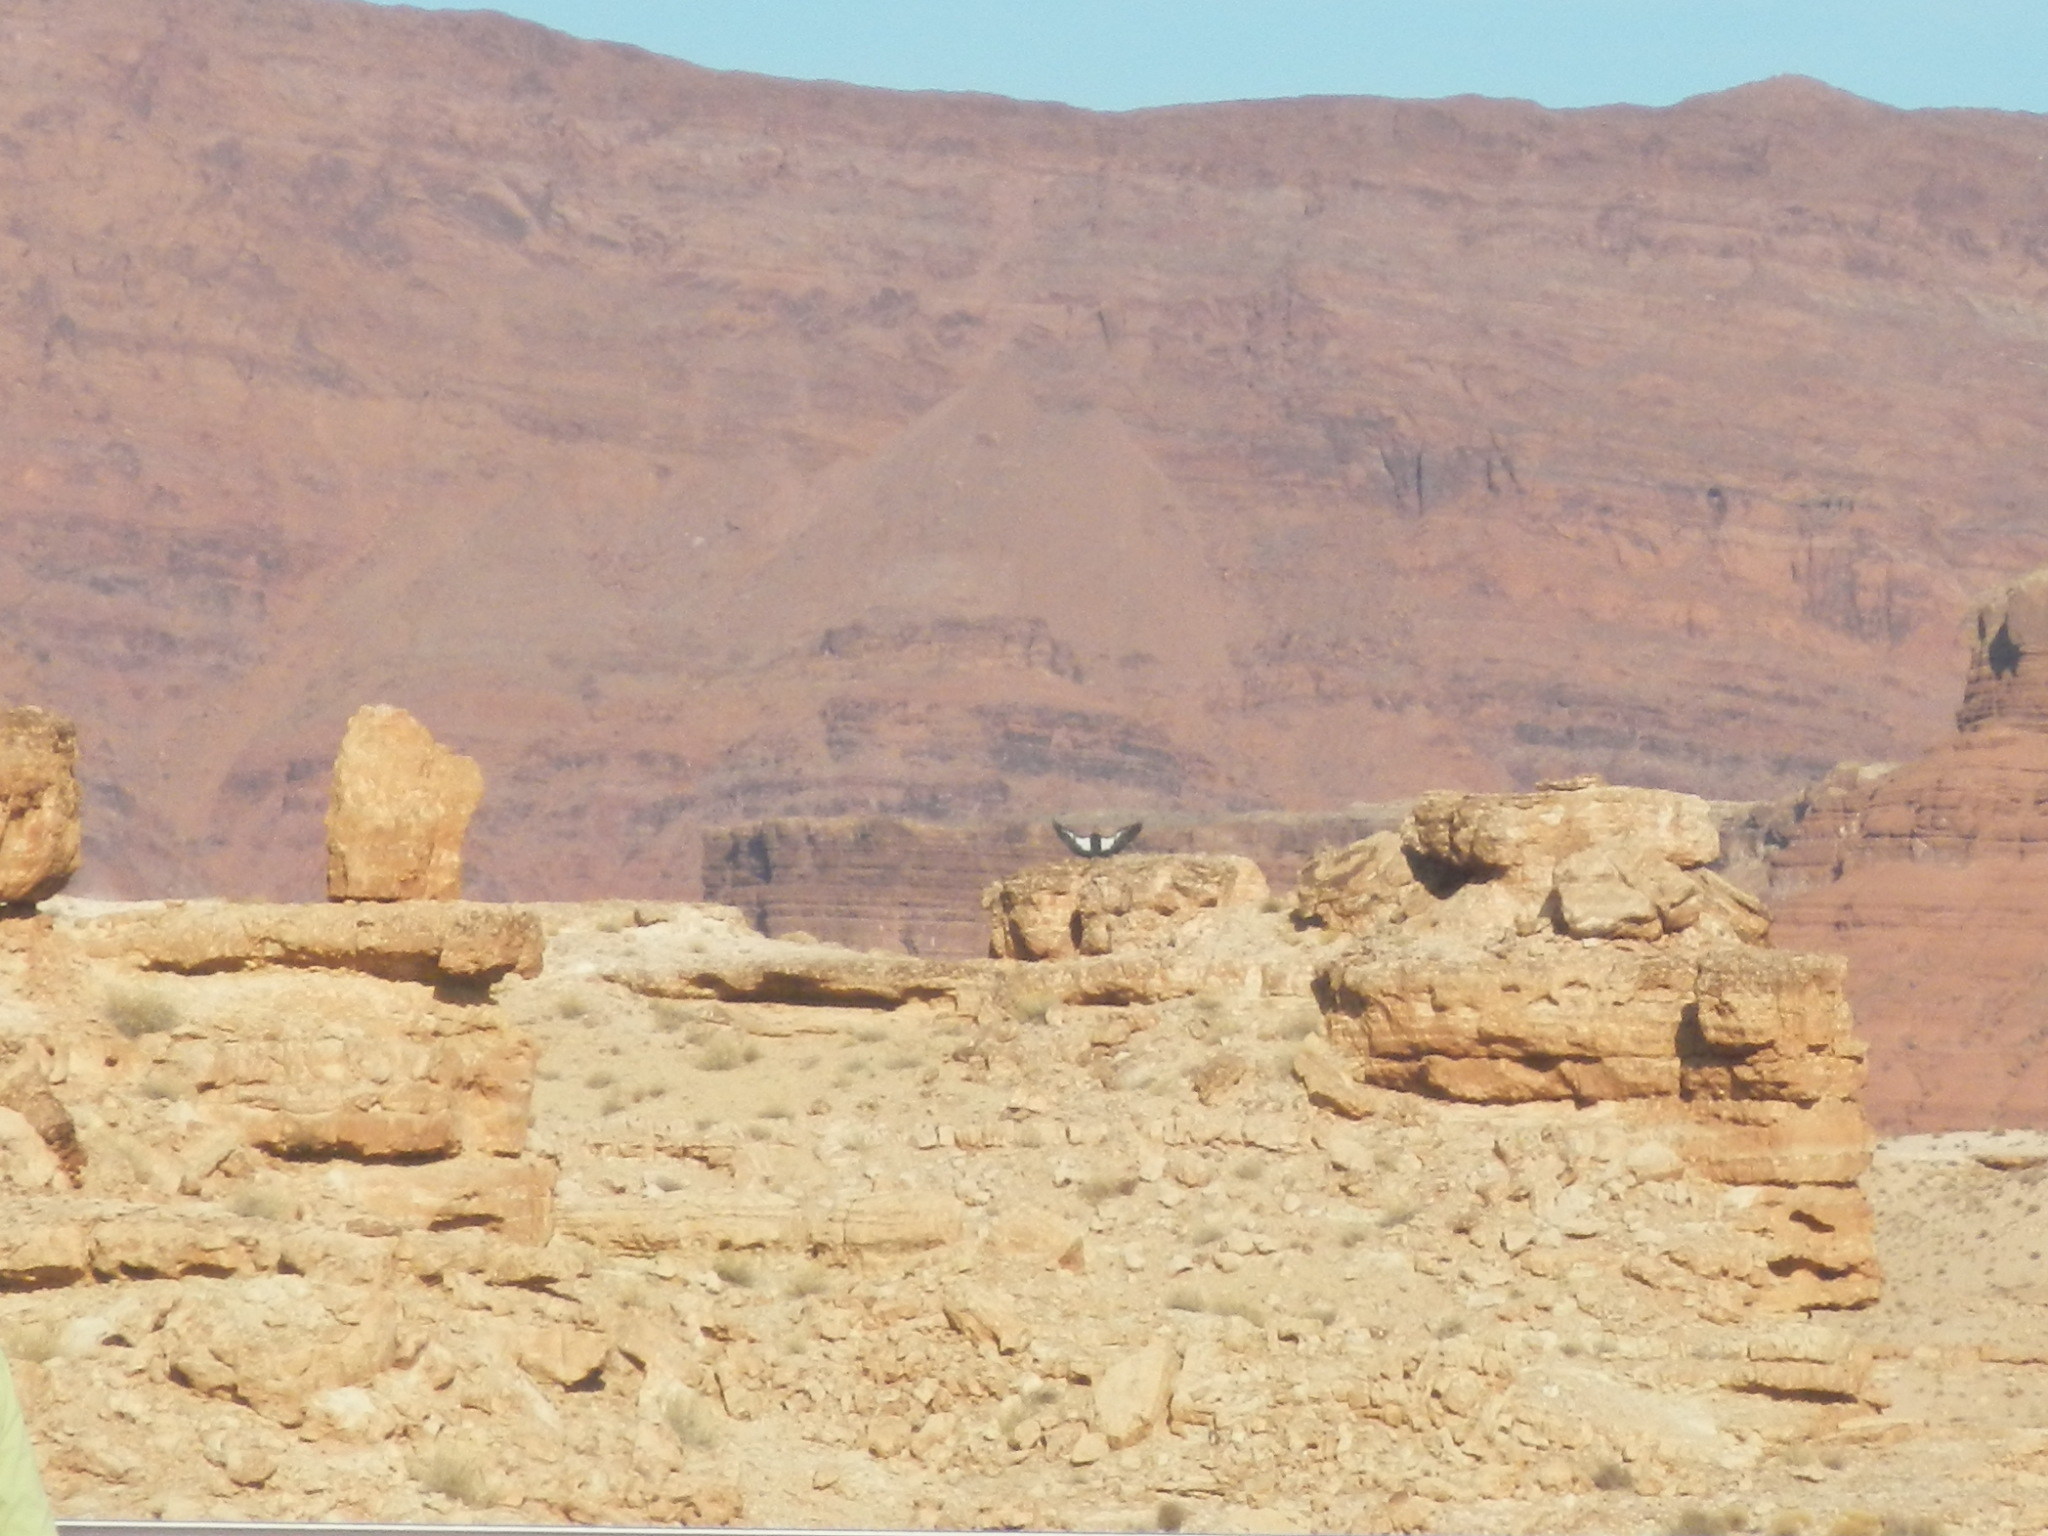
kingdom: Animalia
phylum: Chordata
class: Aves
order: Accipitriformes
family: Cathartidae
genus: Gymnogyps
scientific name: Gymnogyps californianus
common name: California condor
